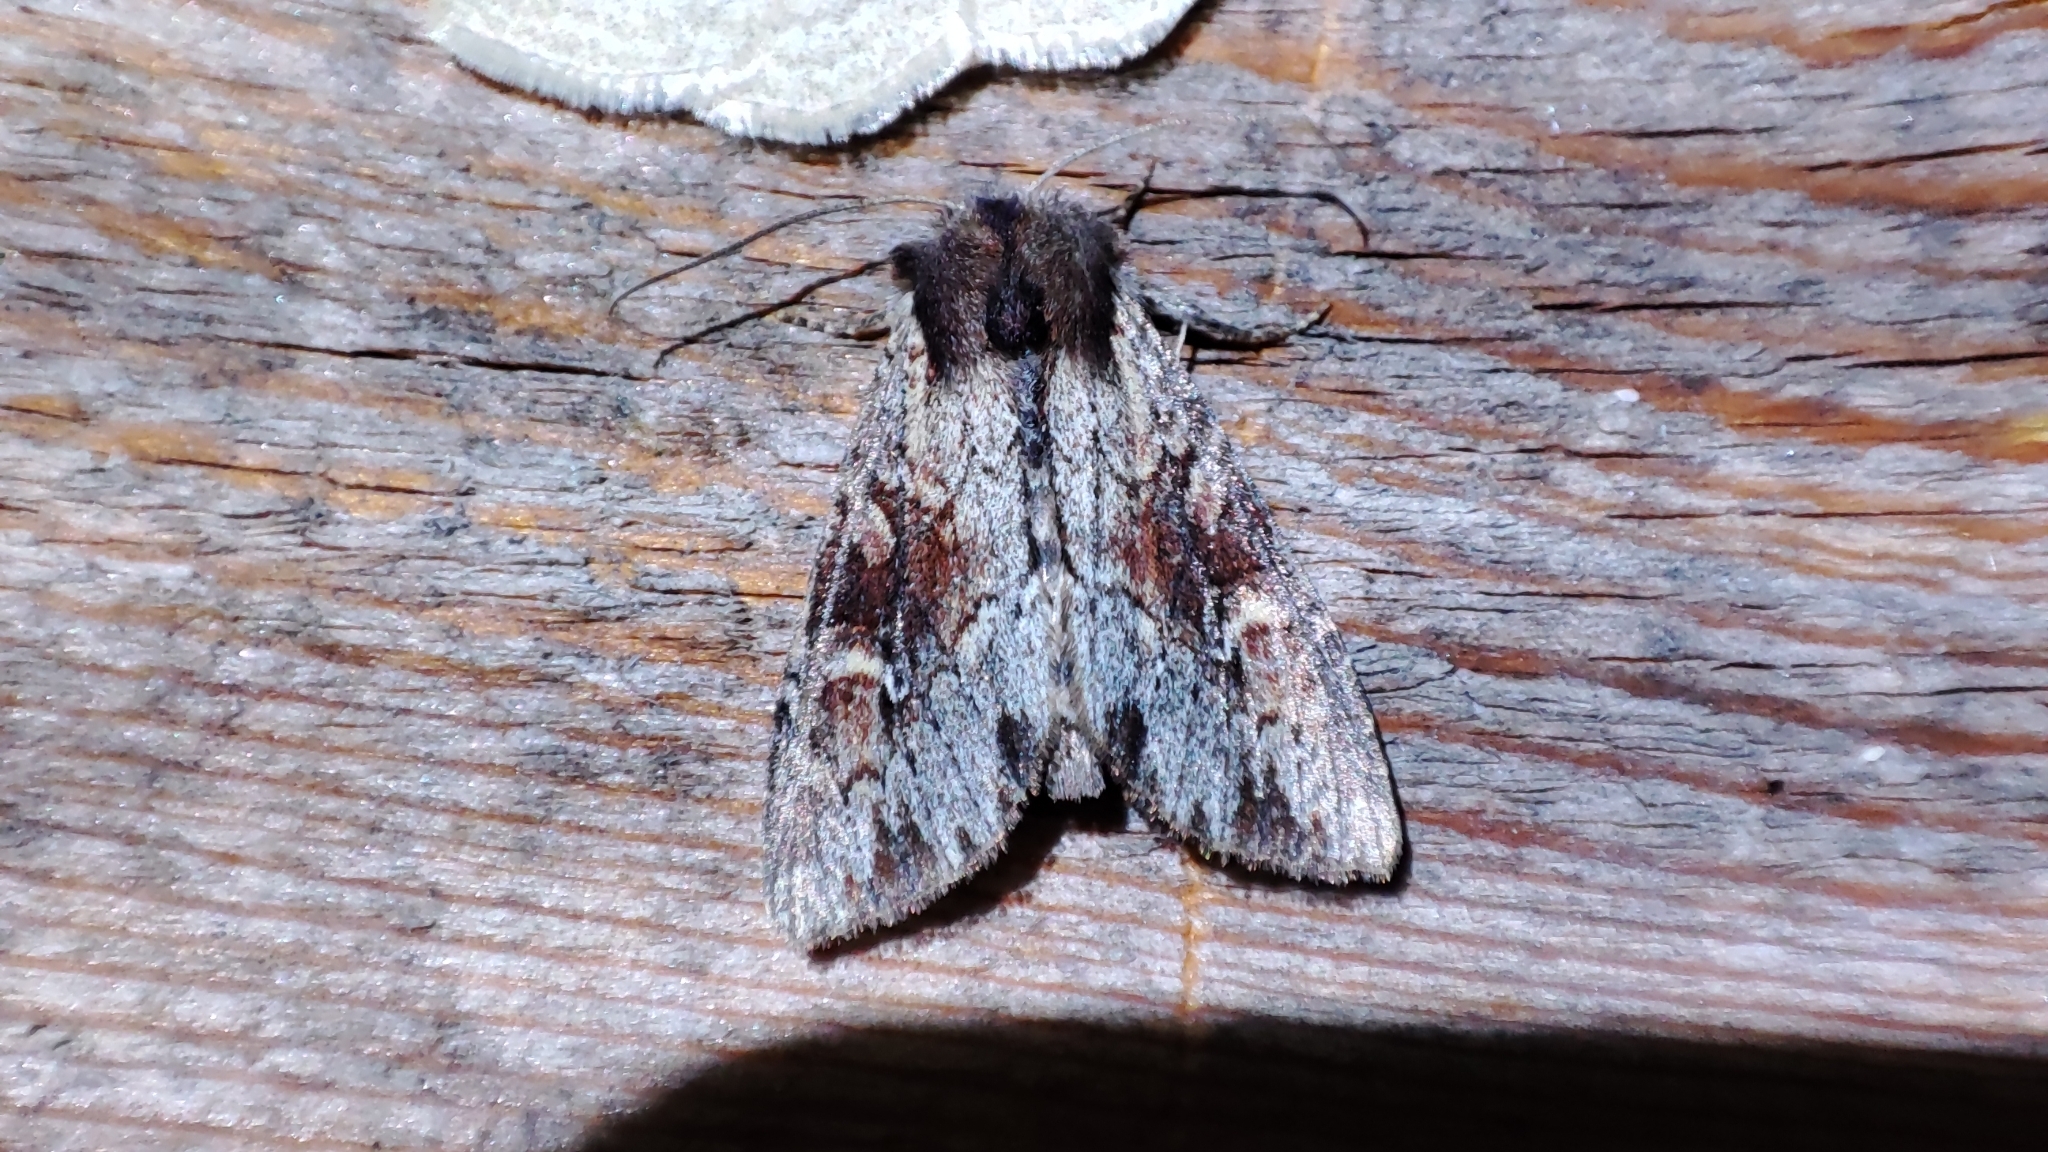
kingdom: Animalia
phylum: Arthropoda
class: Insecta
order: Lepidoptera
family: Noctuidae
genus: Apamea
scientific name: Apamea exstincta
